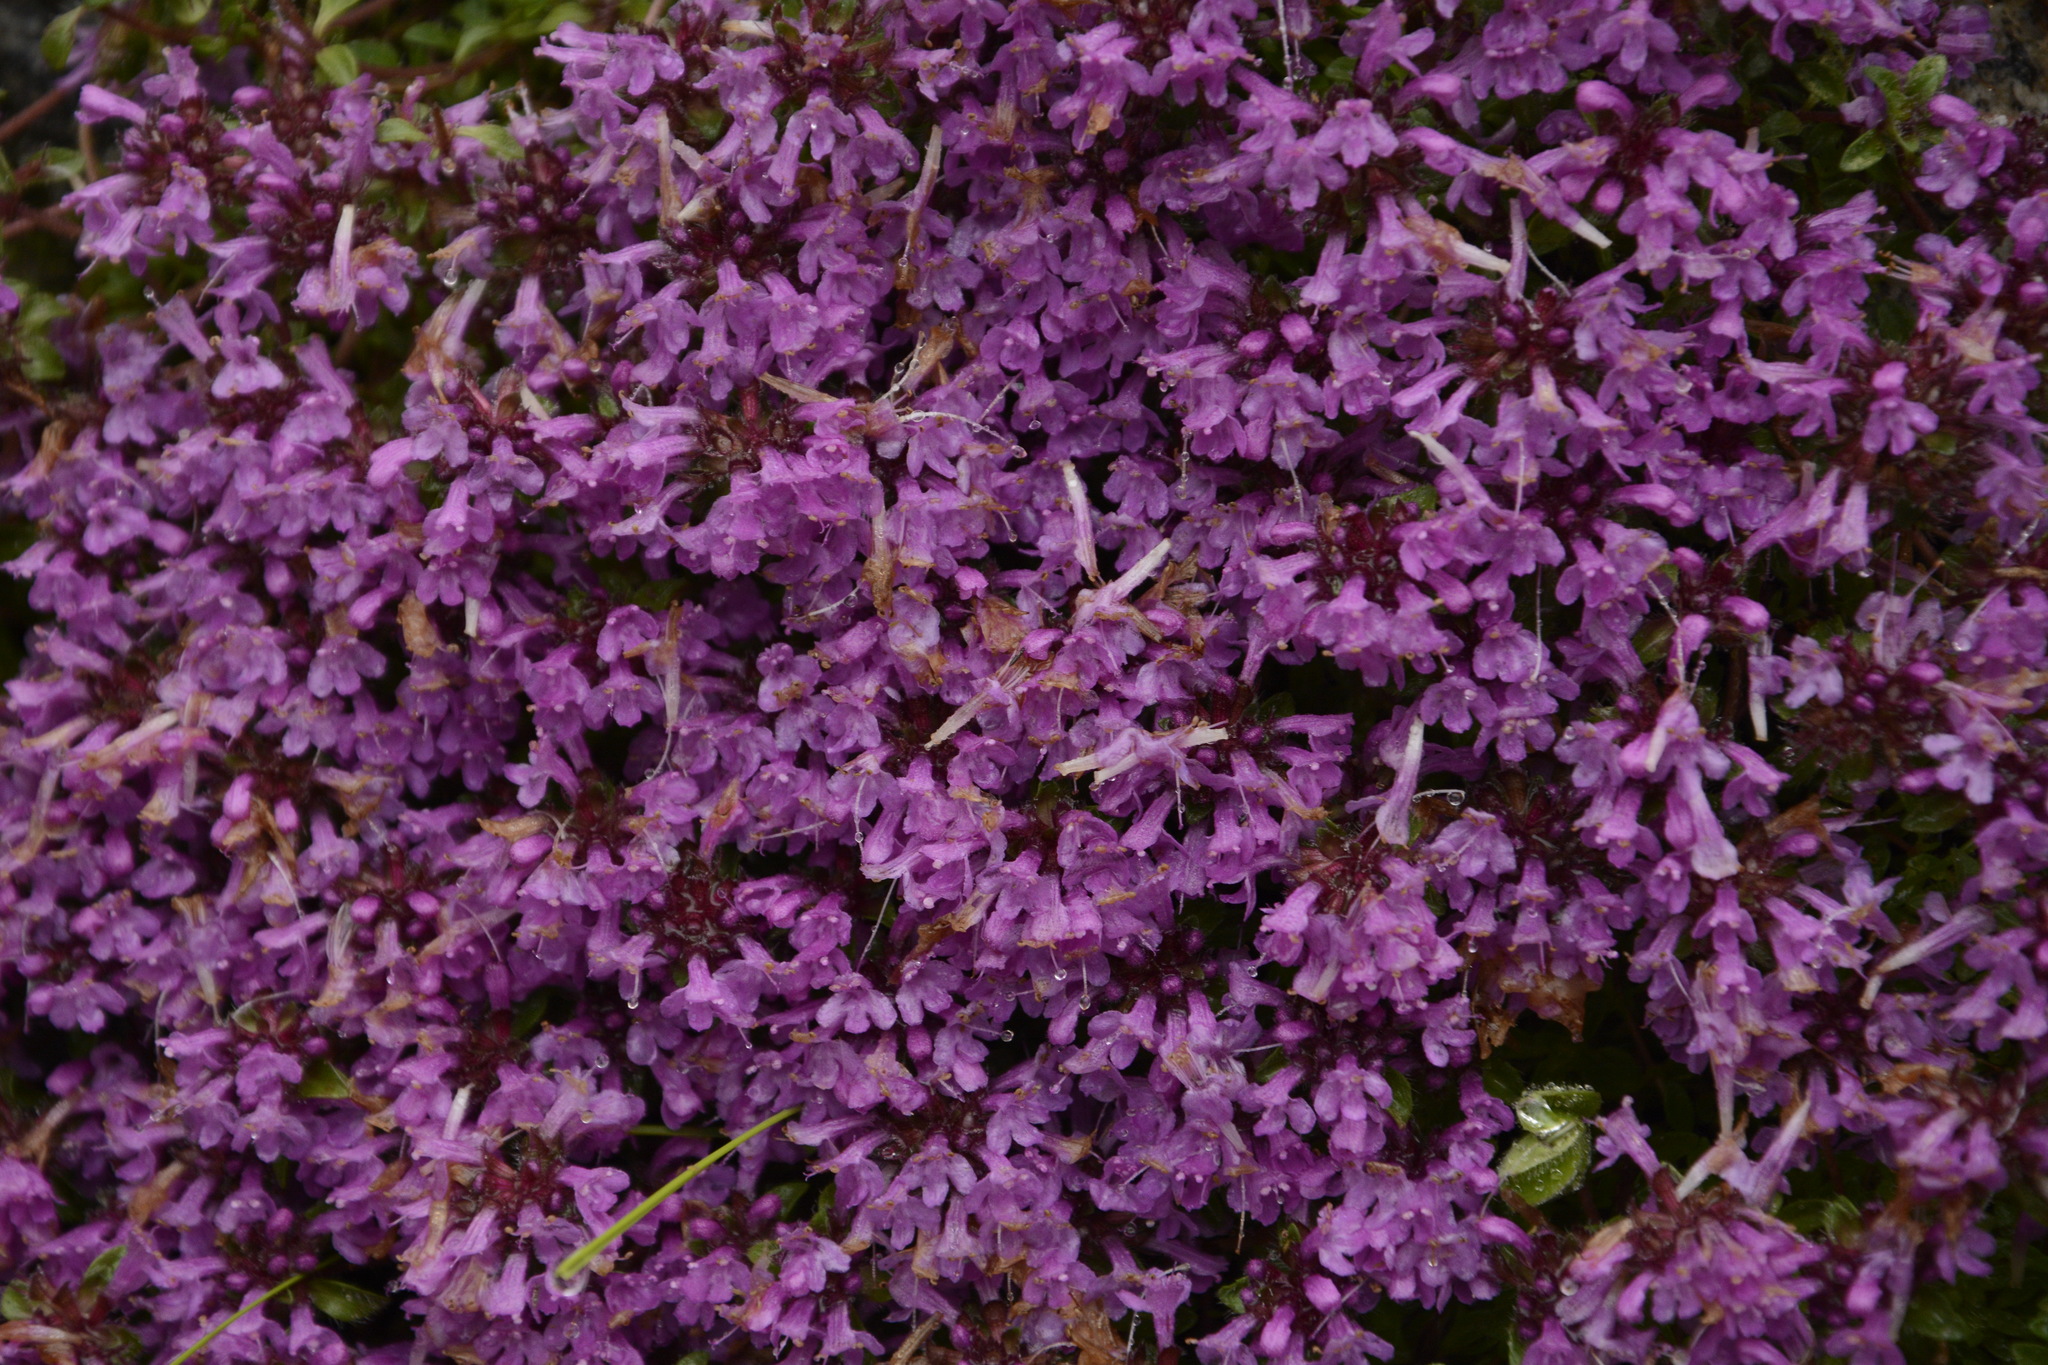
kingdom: Plantae
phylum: Tracheophyta
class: Magnoliopsida
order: Lamiales
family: Lamiaceae
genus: Thymus
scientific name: Thymus linearis
